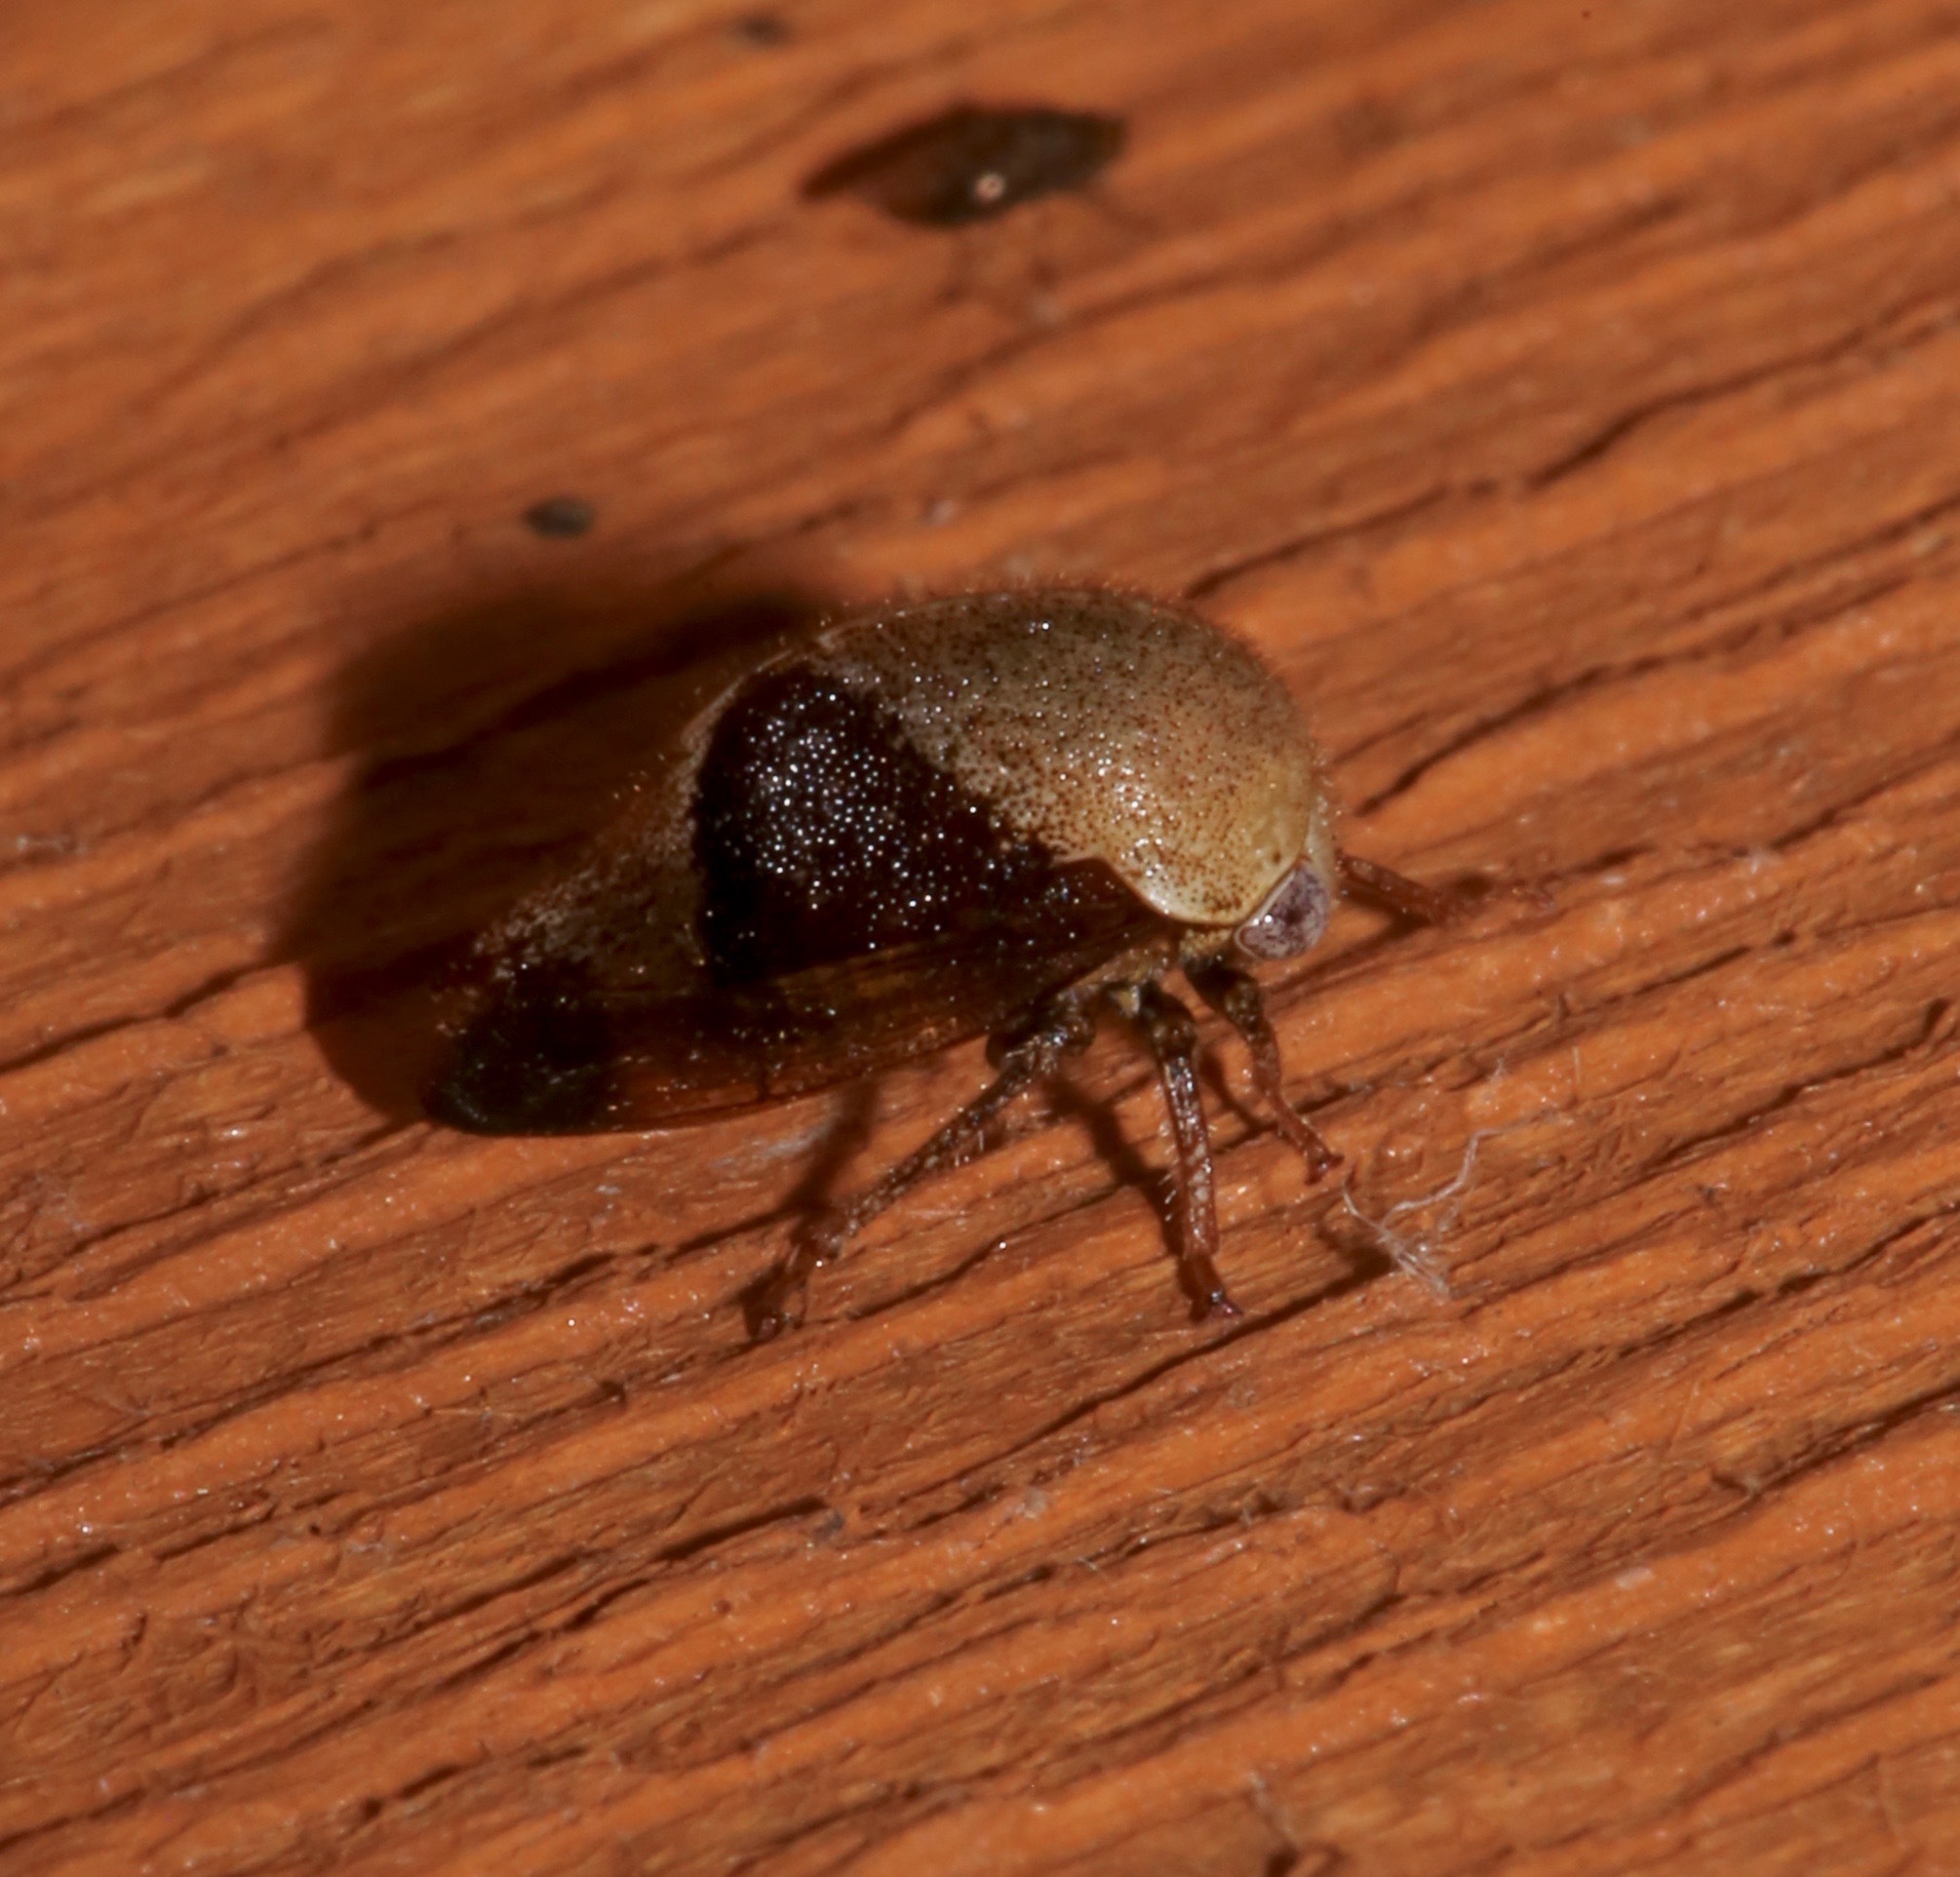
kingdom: Animalia
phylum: Arthropoda
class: Insecta
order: Hemiptera
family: Membracidae
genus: Carynota
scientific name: Carynota mera
